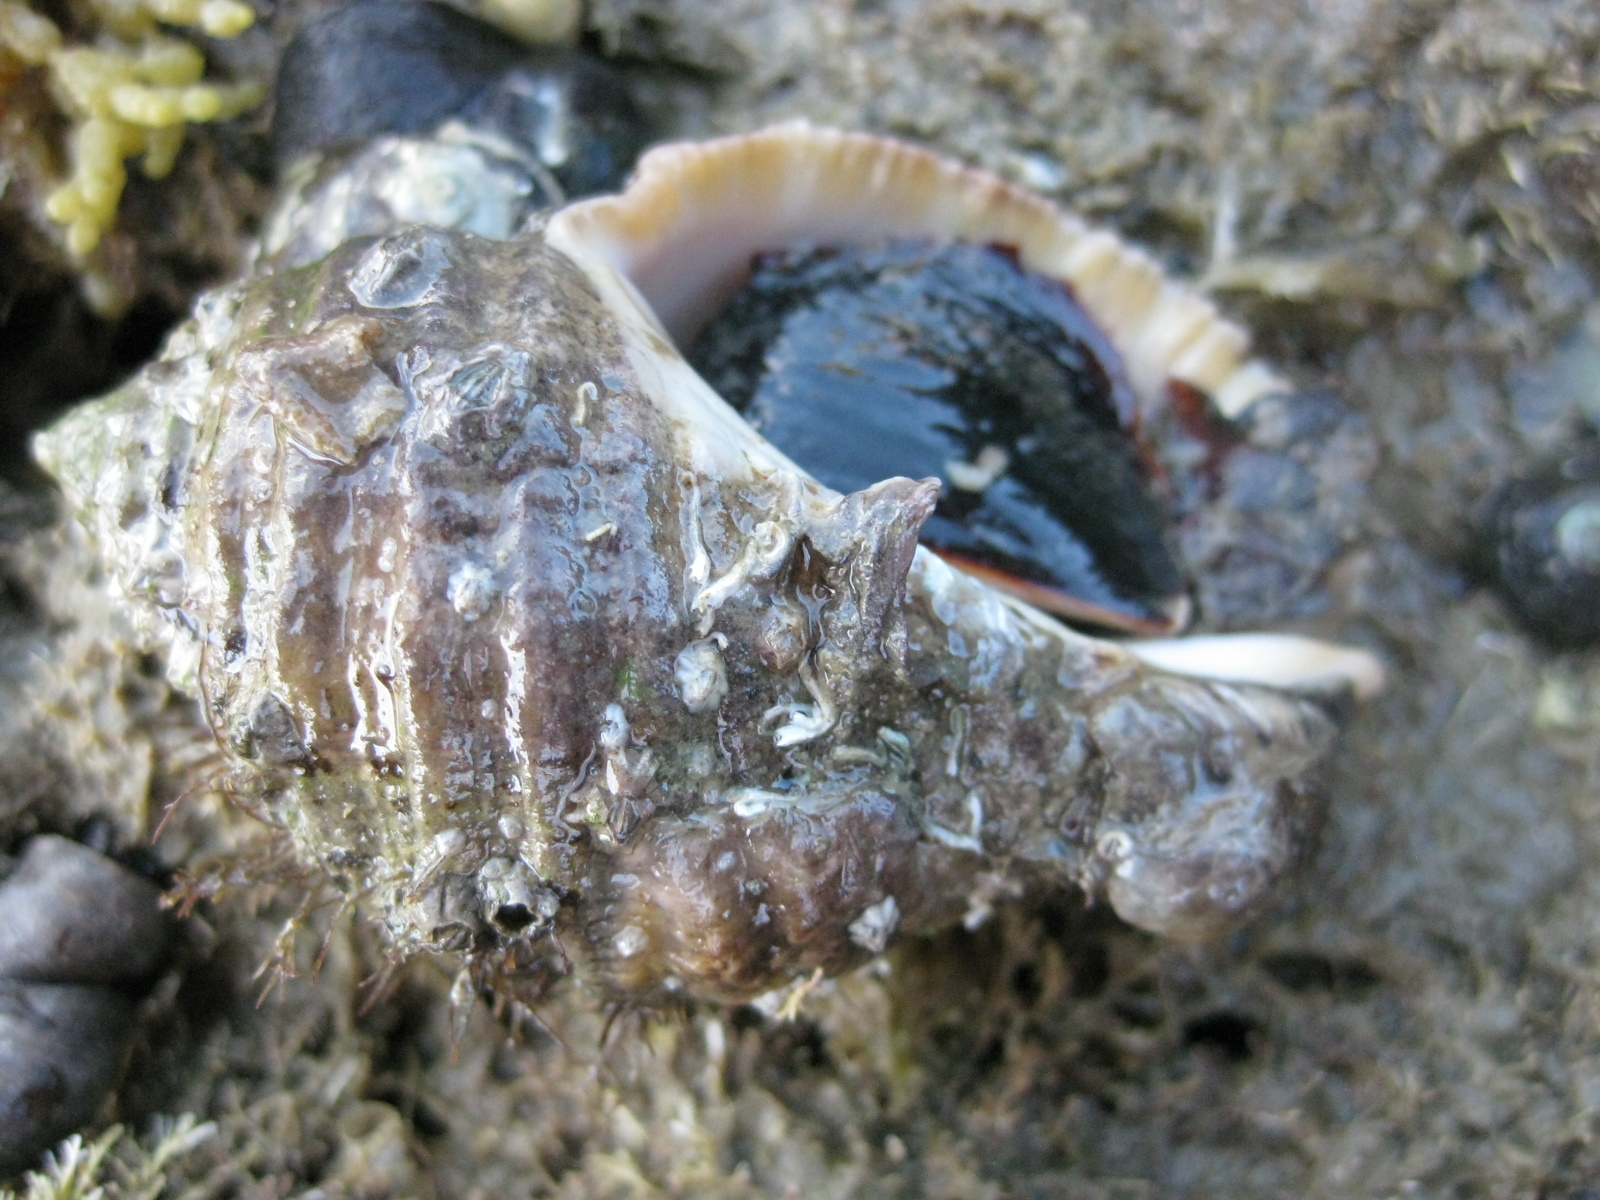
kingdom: Animalia
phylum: Mollusca
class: Gastropoda
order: Neogastropoda
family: Muricidae
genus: Dicathais
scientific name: Dicathais orbita
